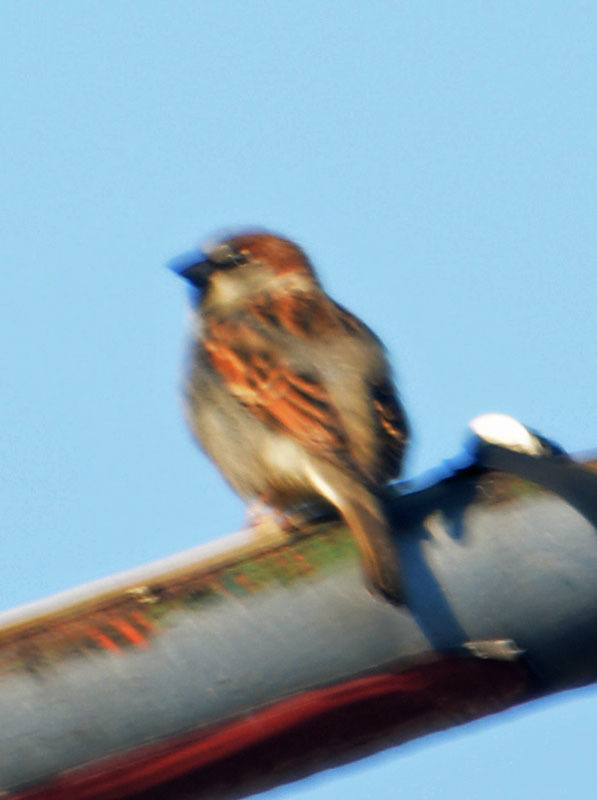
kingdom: Animalia
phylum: Chordata
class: Aves
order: Passeriformes
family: Passeridae
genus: Passer
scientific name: Passer domesticus
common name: House sparrow
